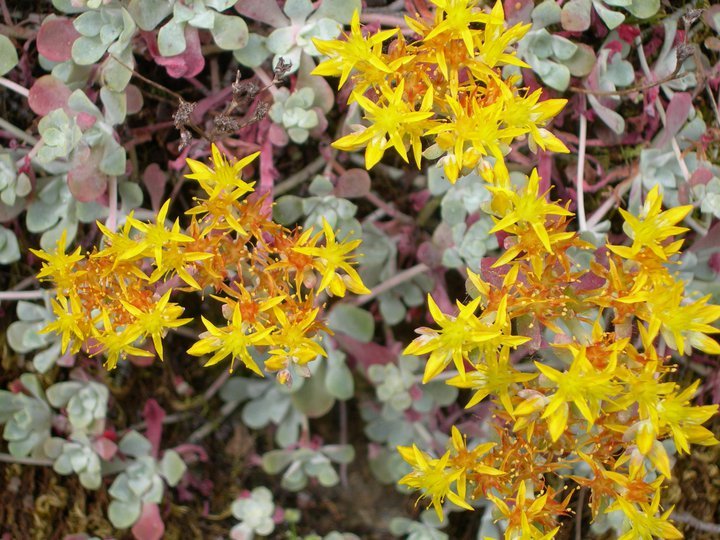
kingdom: Plantae
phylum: Tracheophyta
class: Magnoliopsida
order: Saxifragales
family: Crassulaceae
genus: Sedum
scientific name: Sedum spathulifolium
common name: Colorado stonecrop
